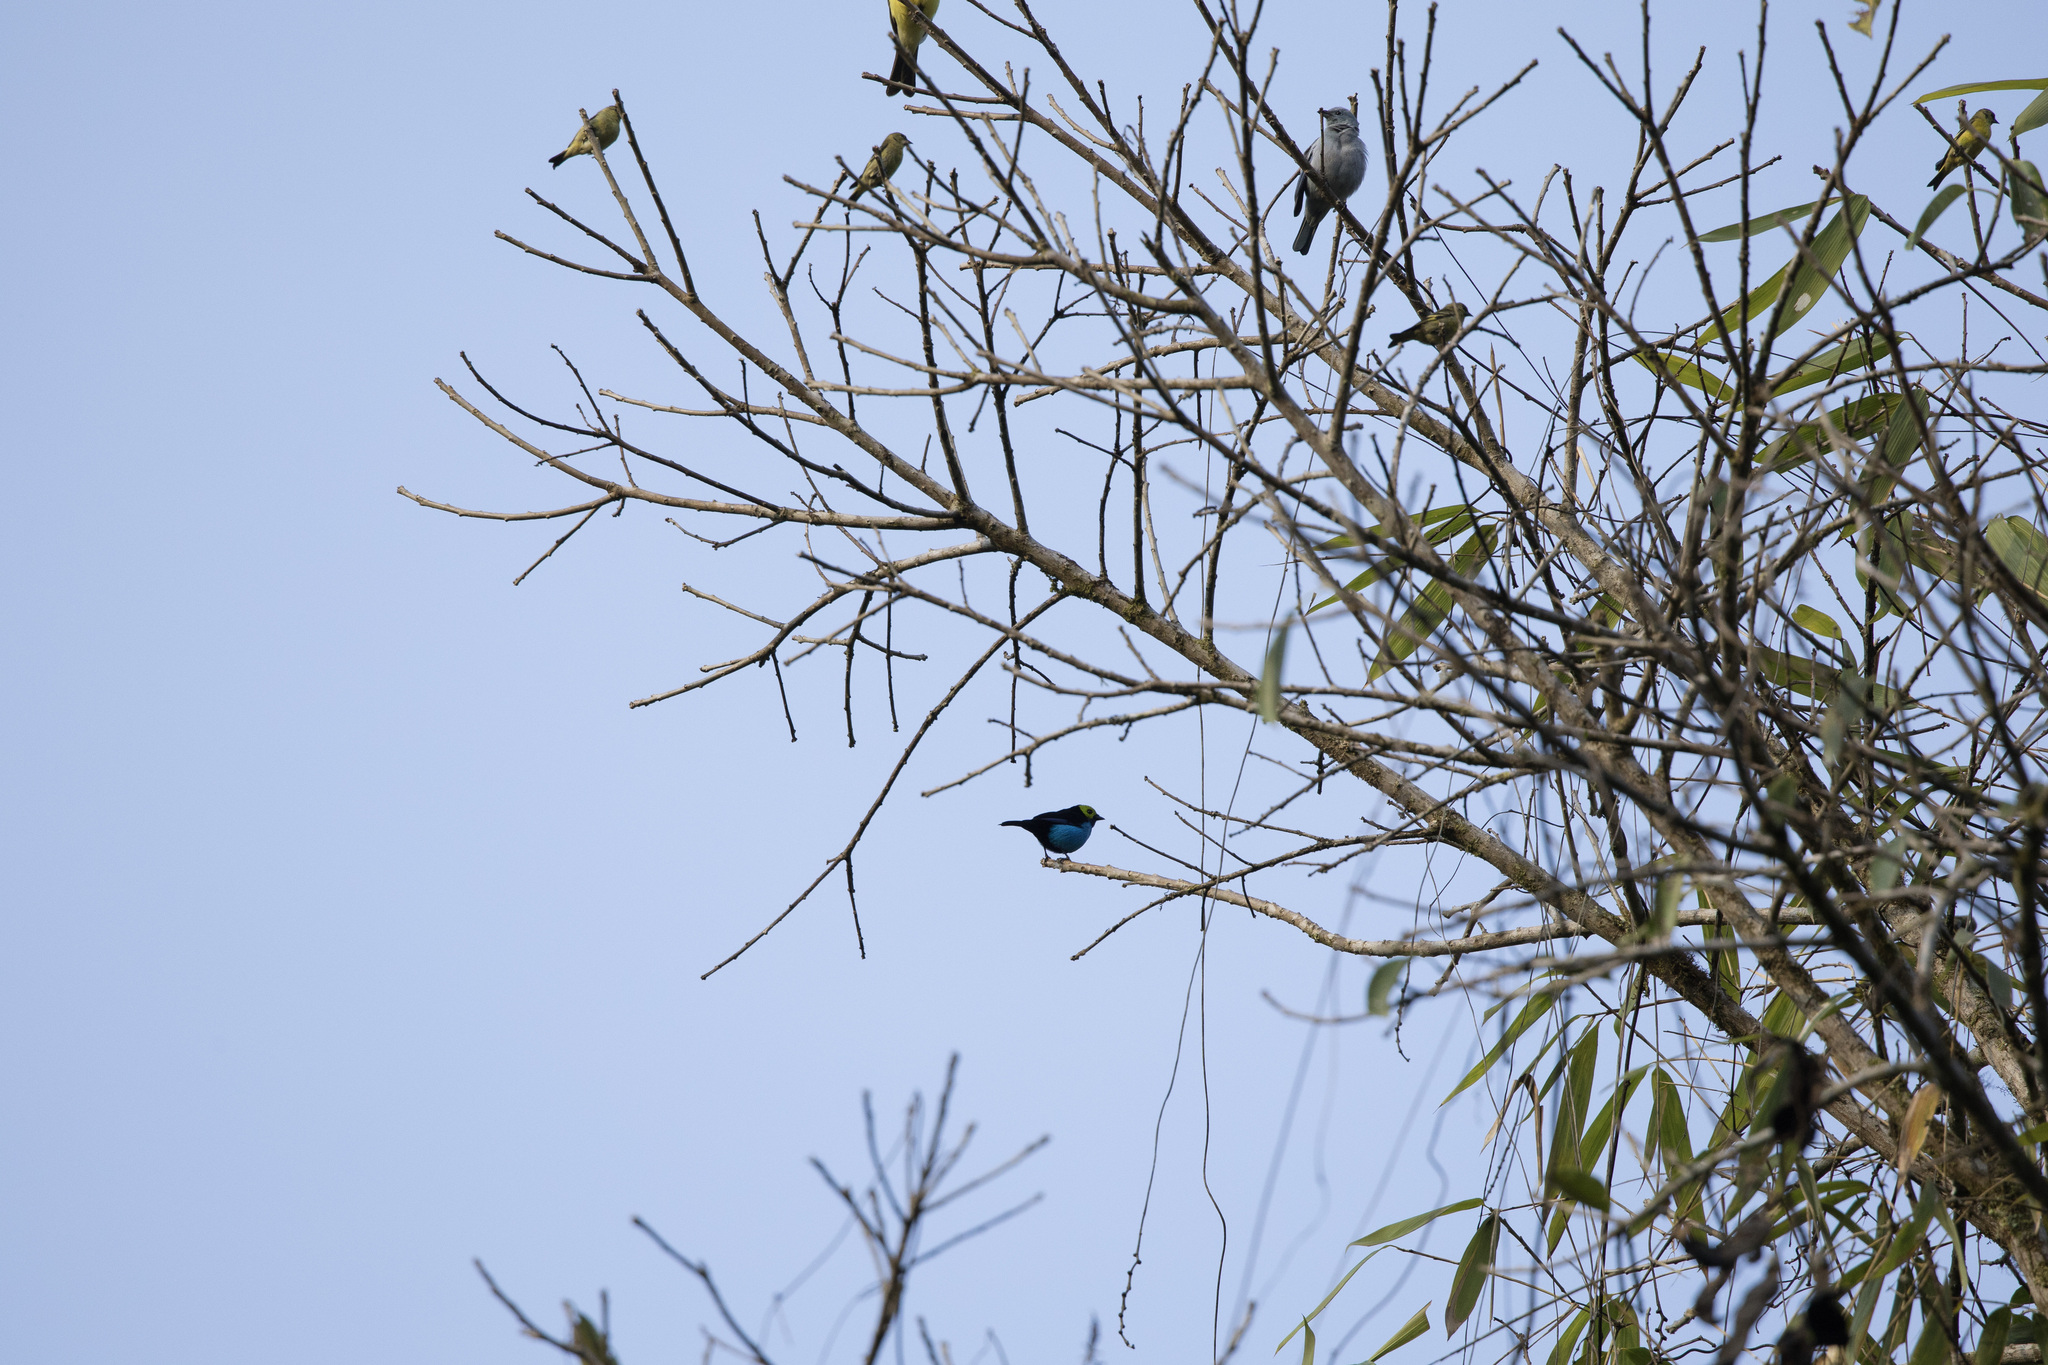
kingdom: Animalia
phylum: Chordata
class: Aves
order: Passeriformes
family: Thraupidae
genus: Tangara
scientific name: Tangara chilensis
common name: Paradise tanager
